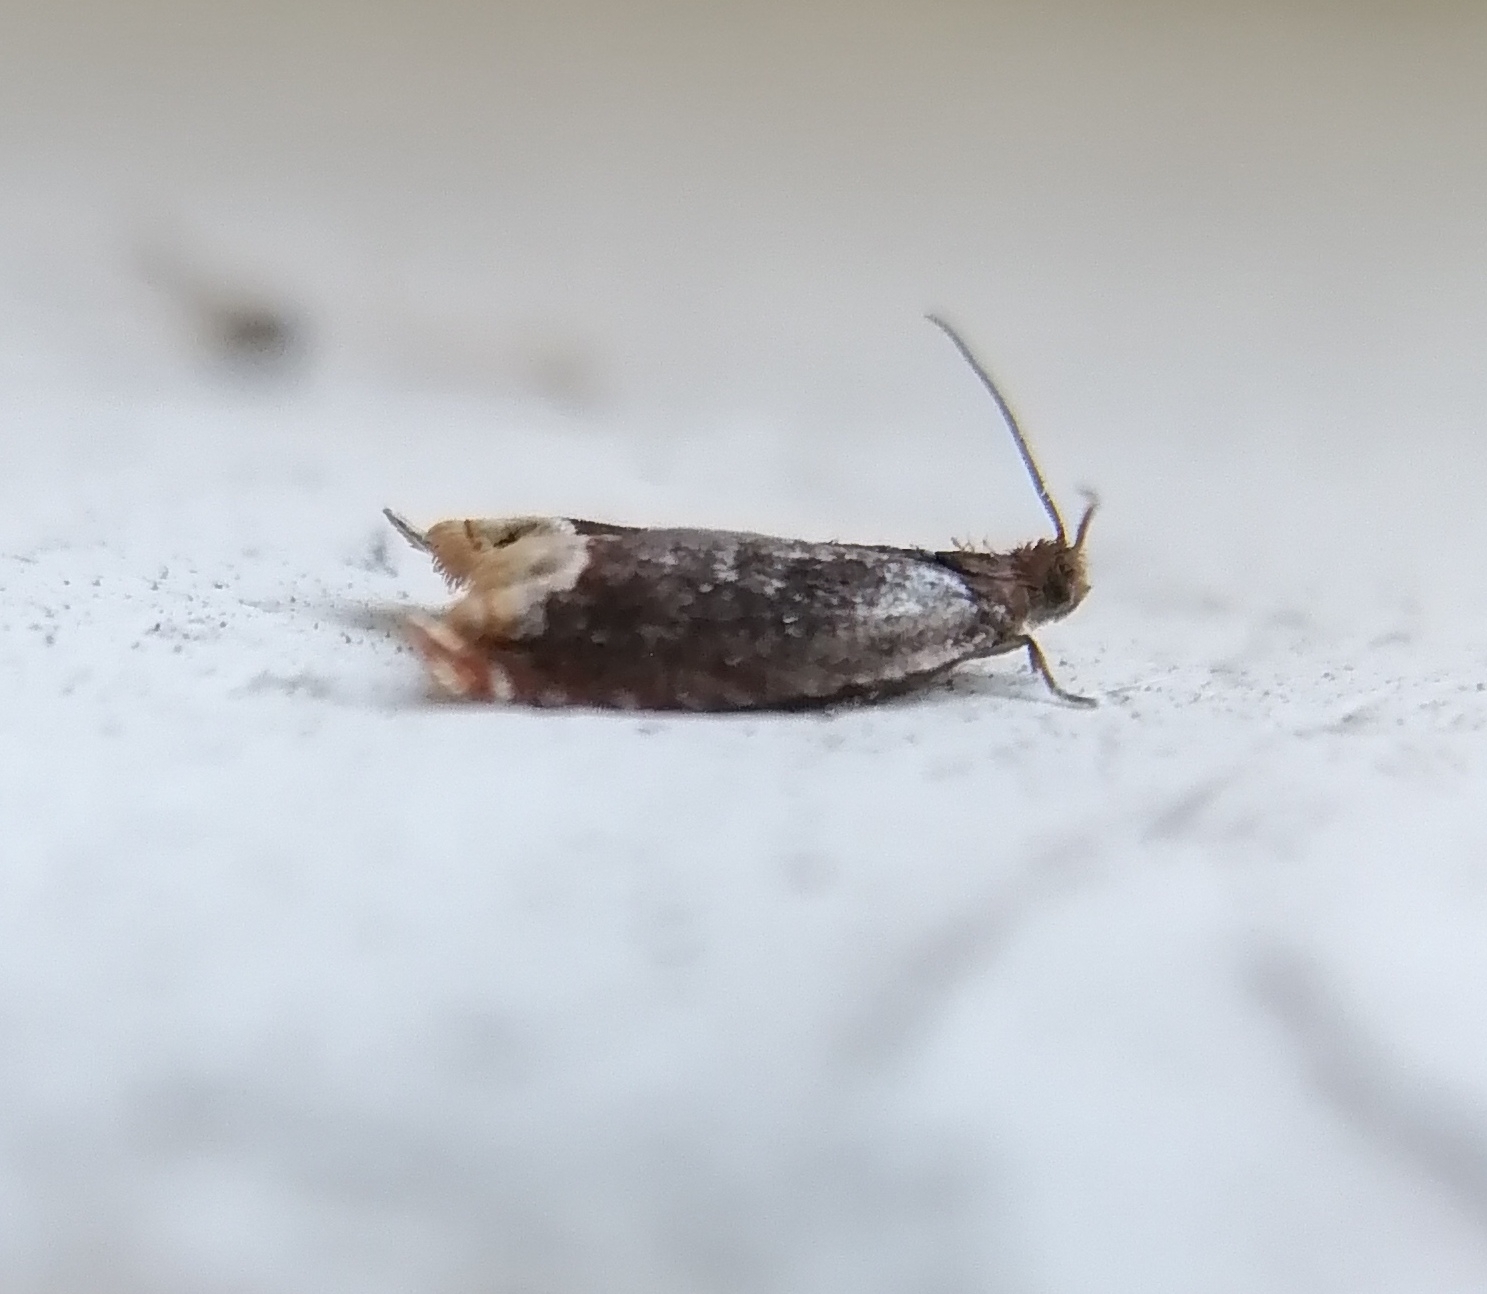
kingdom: Animalia
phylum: Arthropoda
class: Insecta
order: Lepidoptera
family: Tortricidae
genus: Ancylis
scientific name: Ancylis selenana
